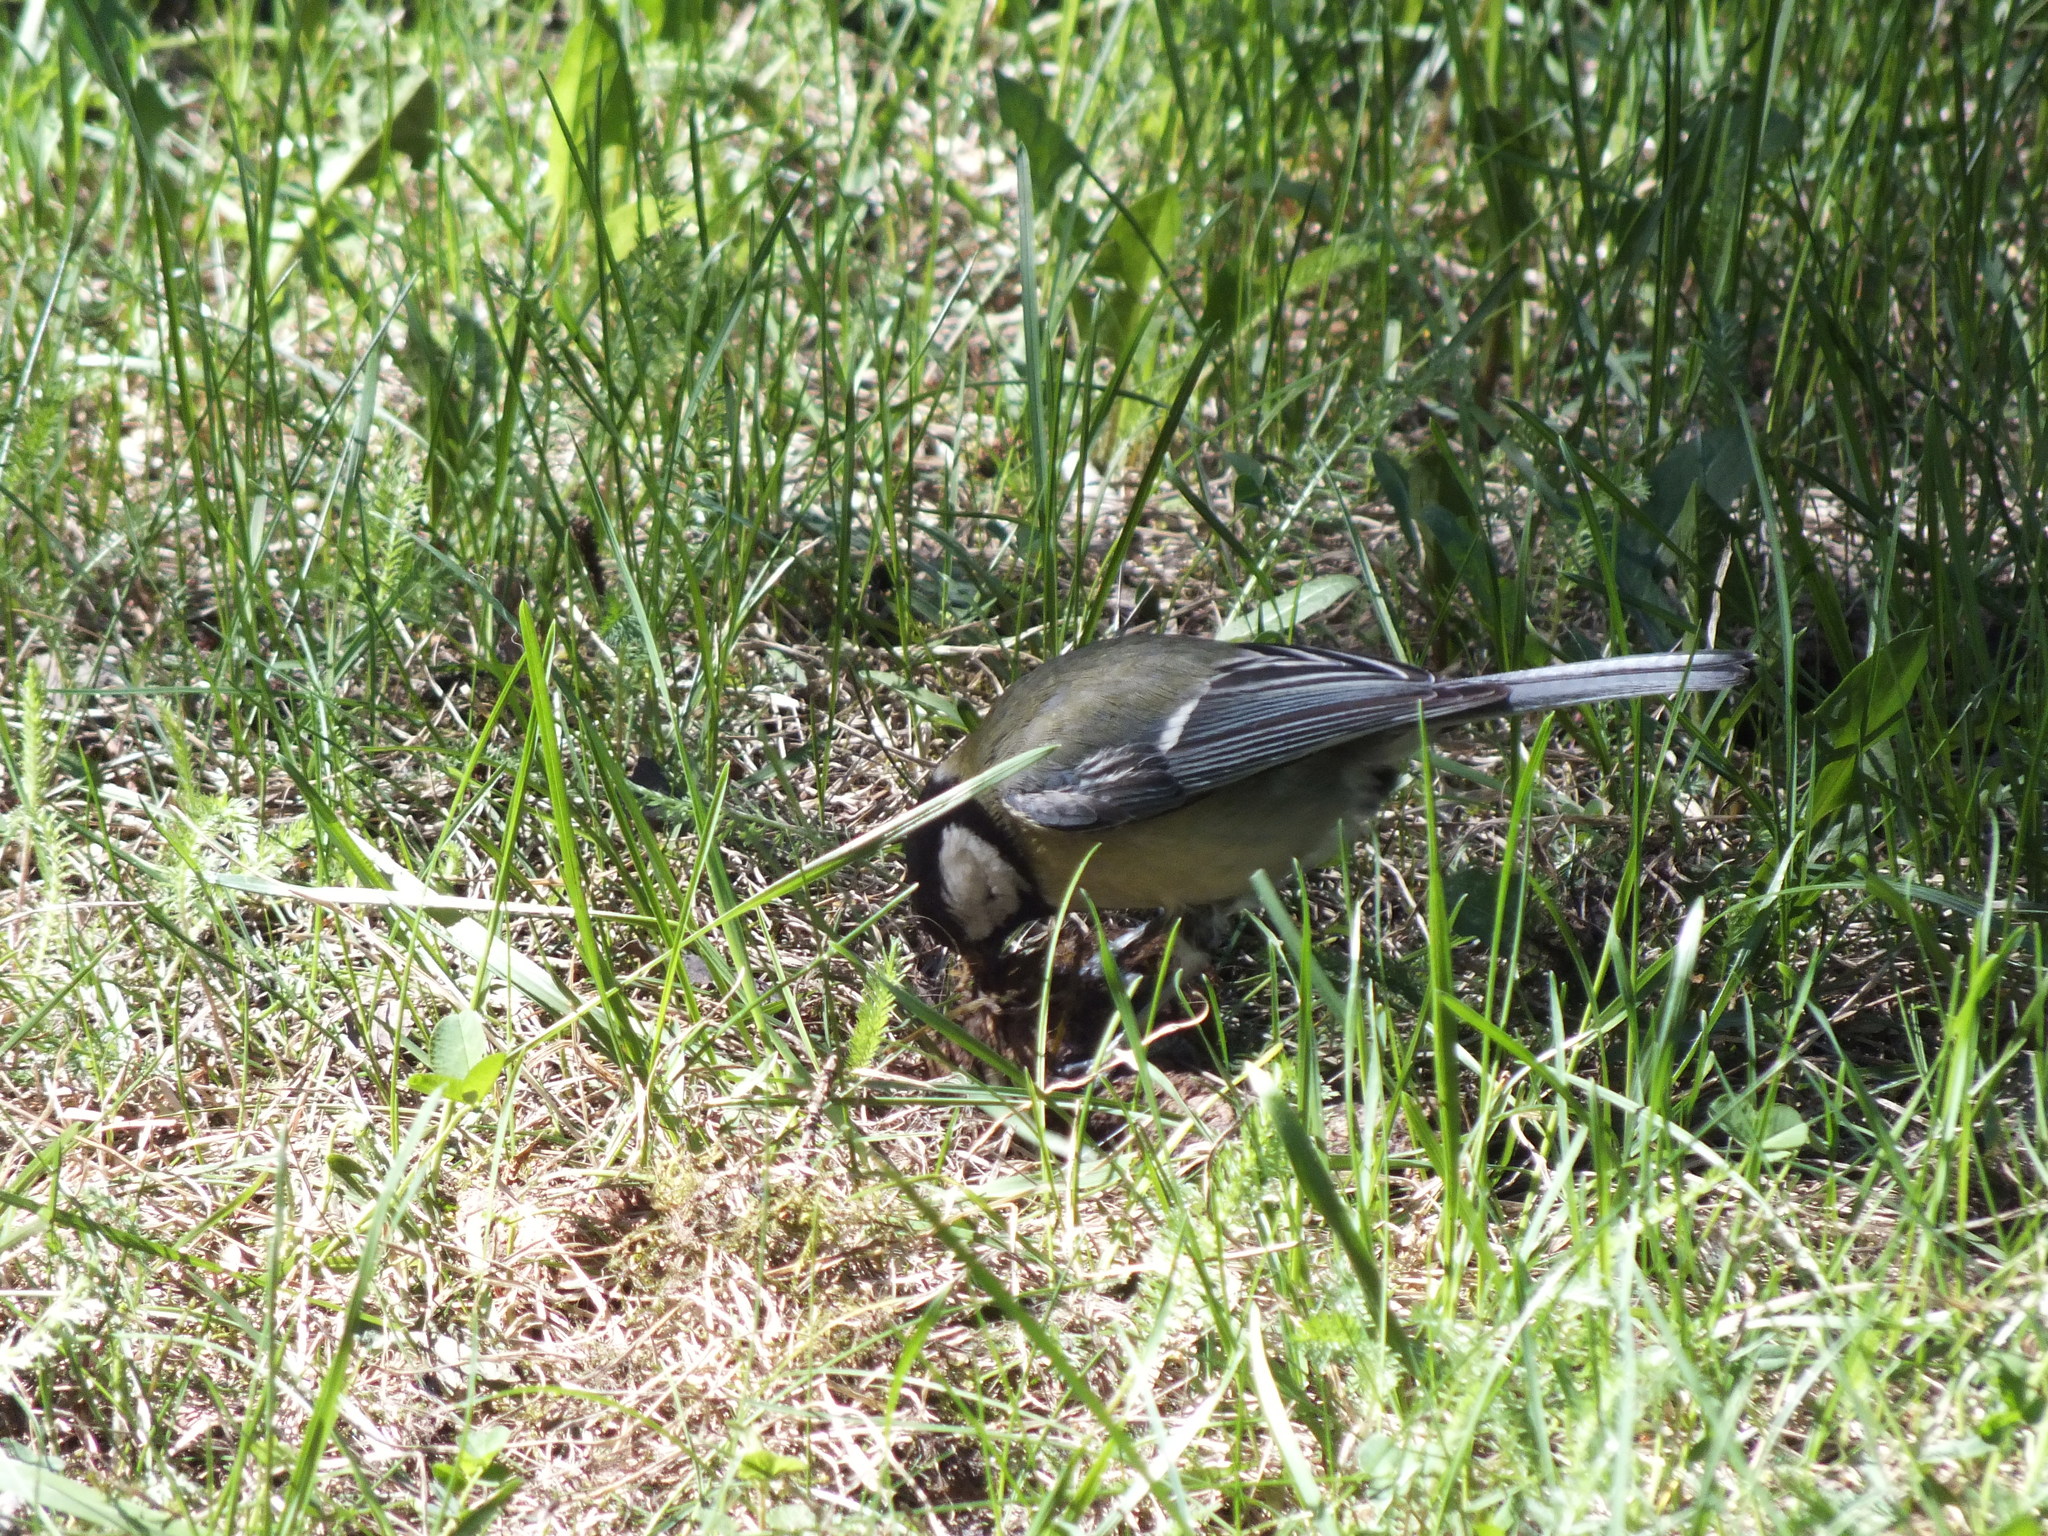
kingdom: Animalia
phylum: Chordata
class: Aves
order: Passeriformes
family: Paridae
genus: Parus
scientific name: Parus major
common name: Great tit
